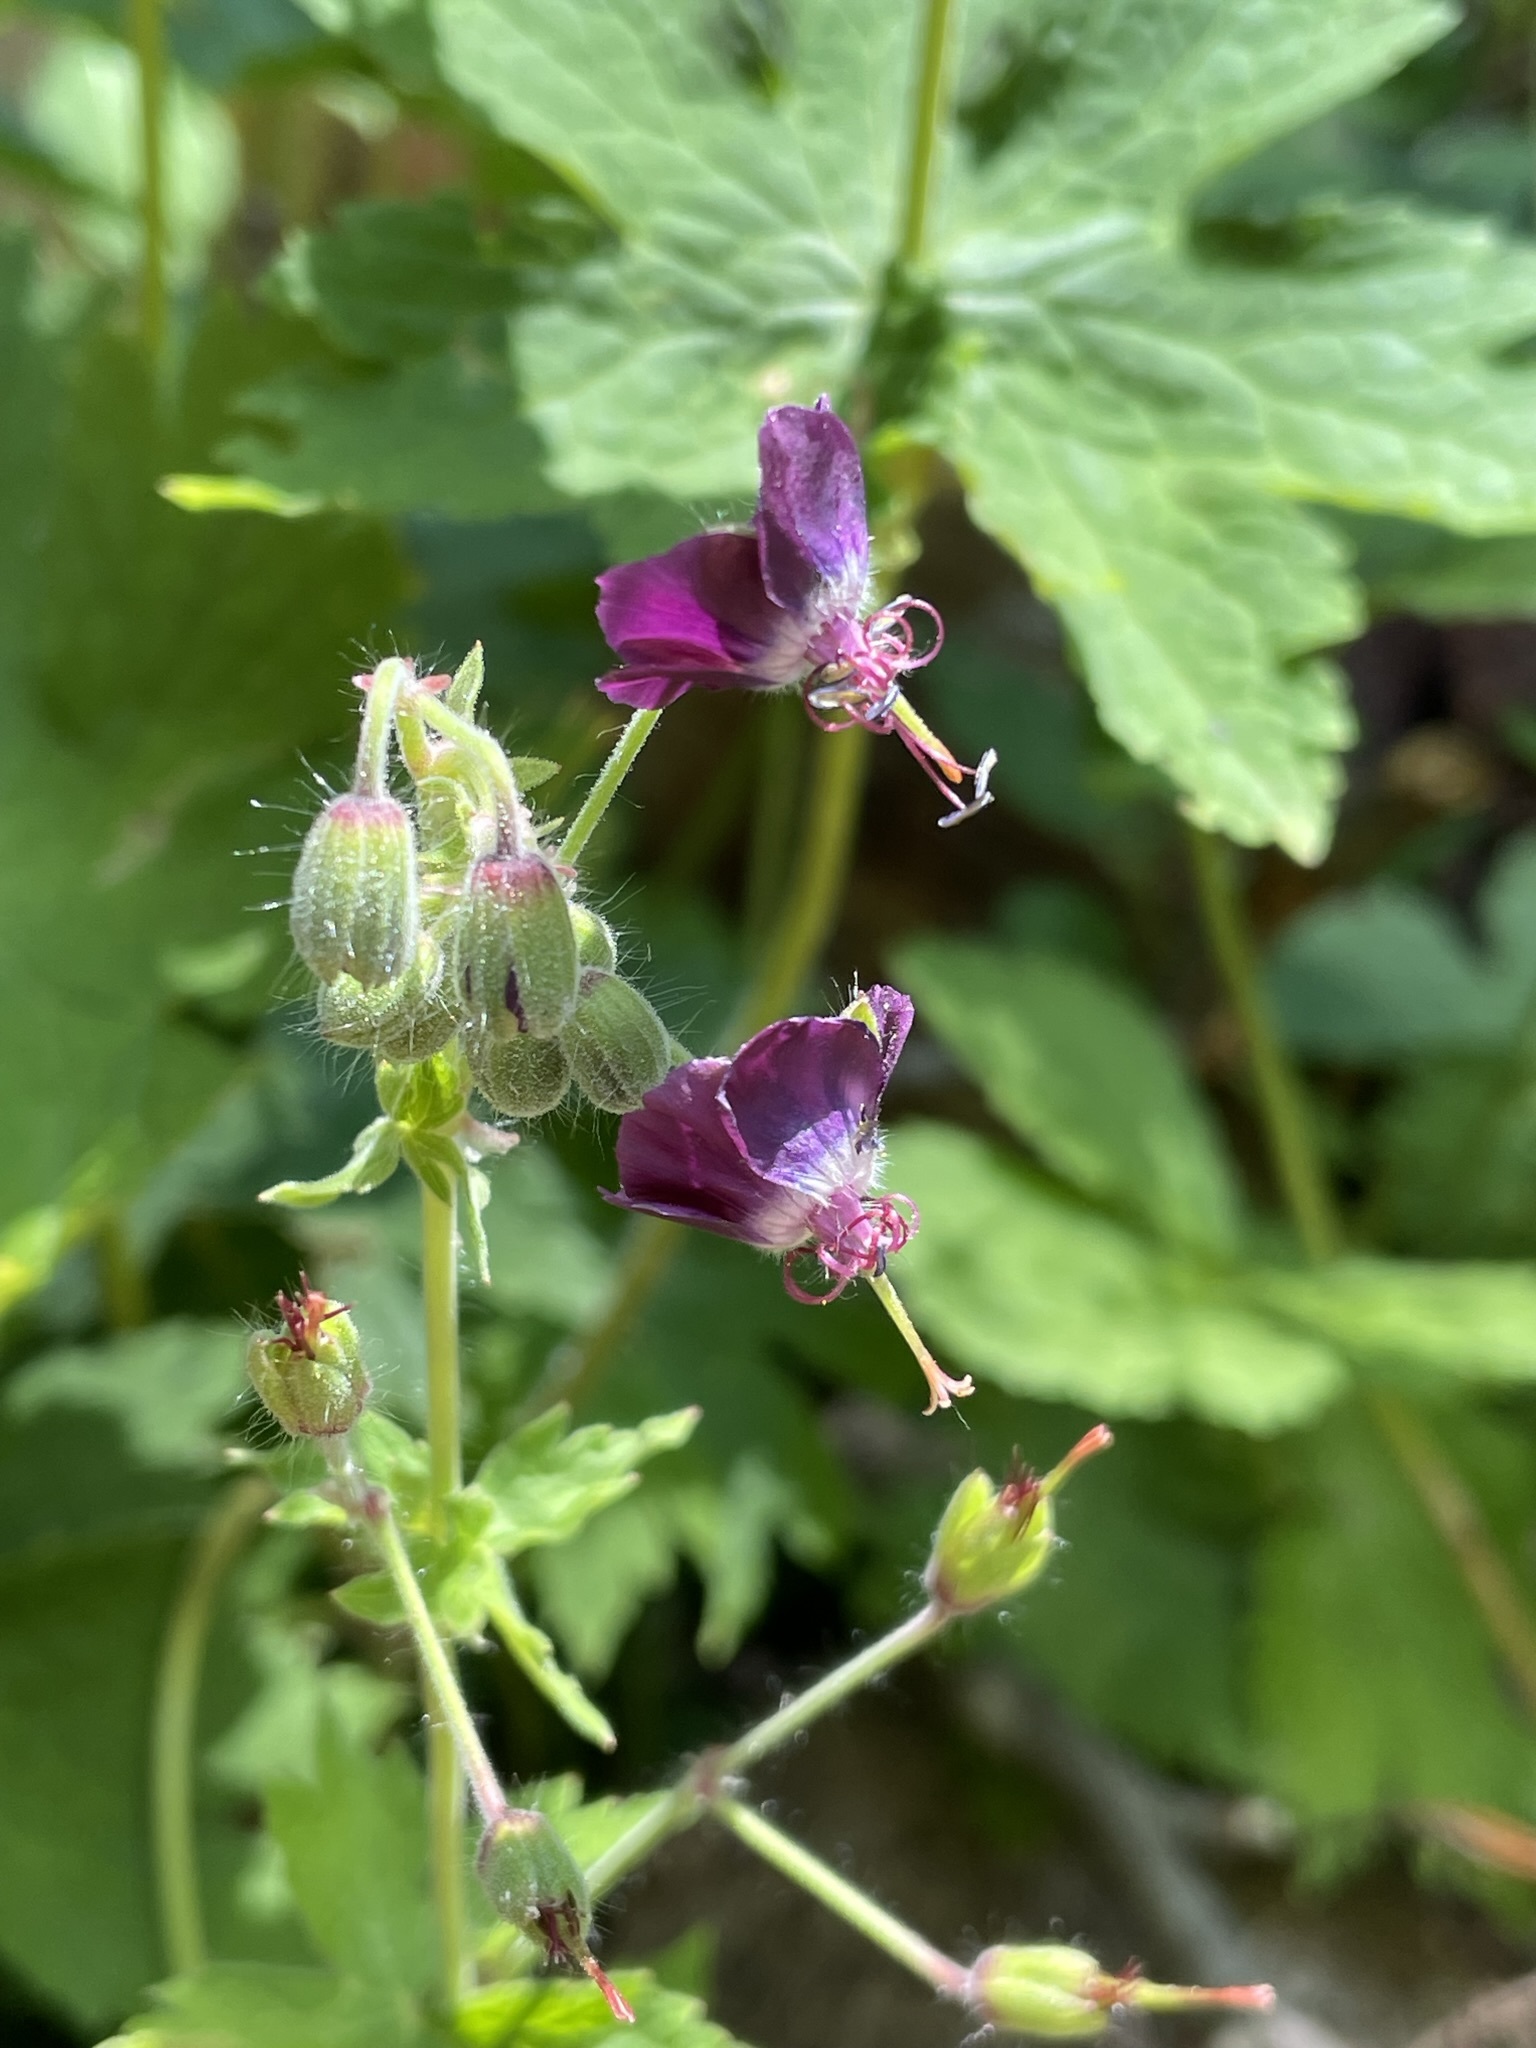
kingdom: Plantae
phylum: Tracheophyta
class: Magnoliopsida
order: Geraniales
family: Geraniaceae
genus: Geranium
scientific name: Geranium phaeum
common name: Dusky crane's-bill
